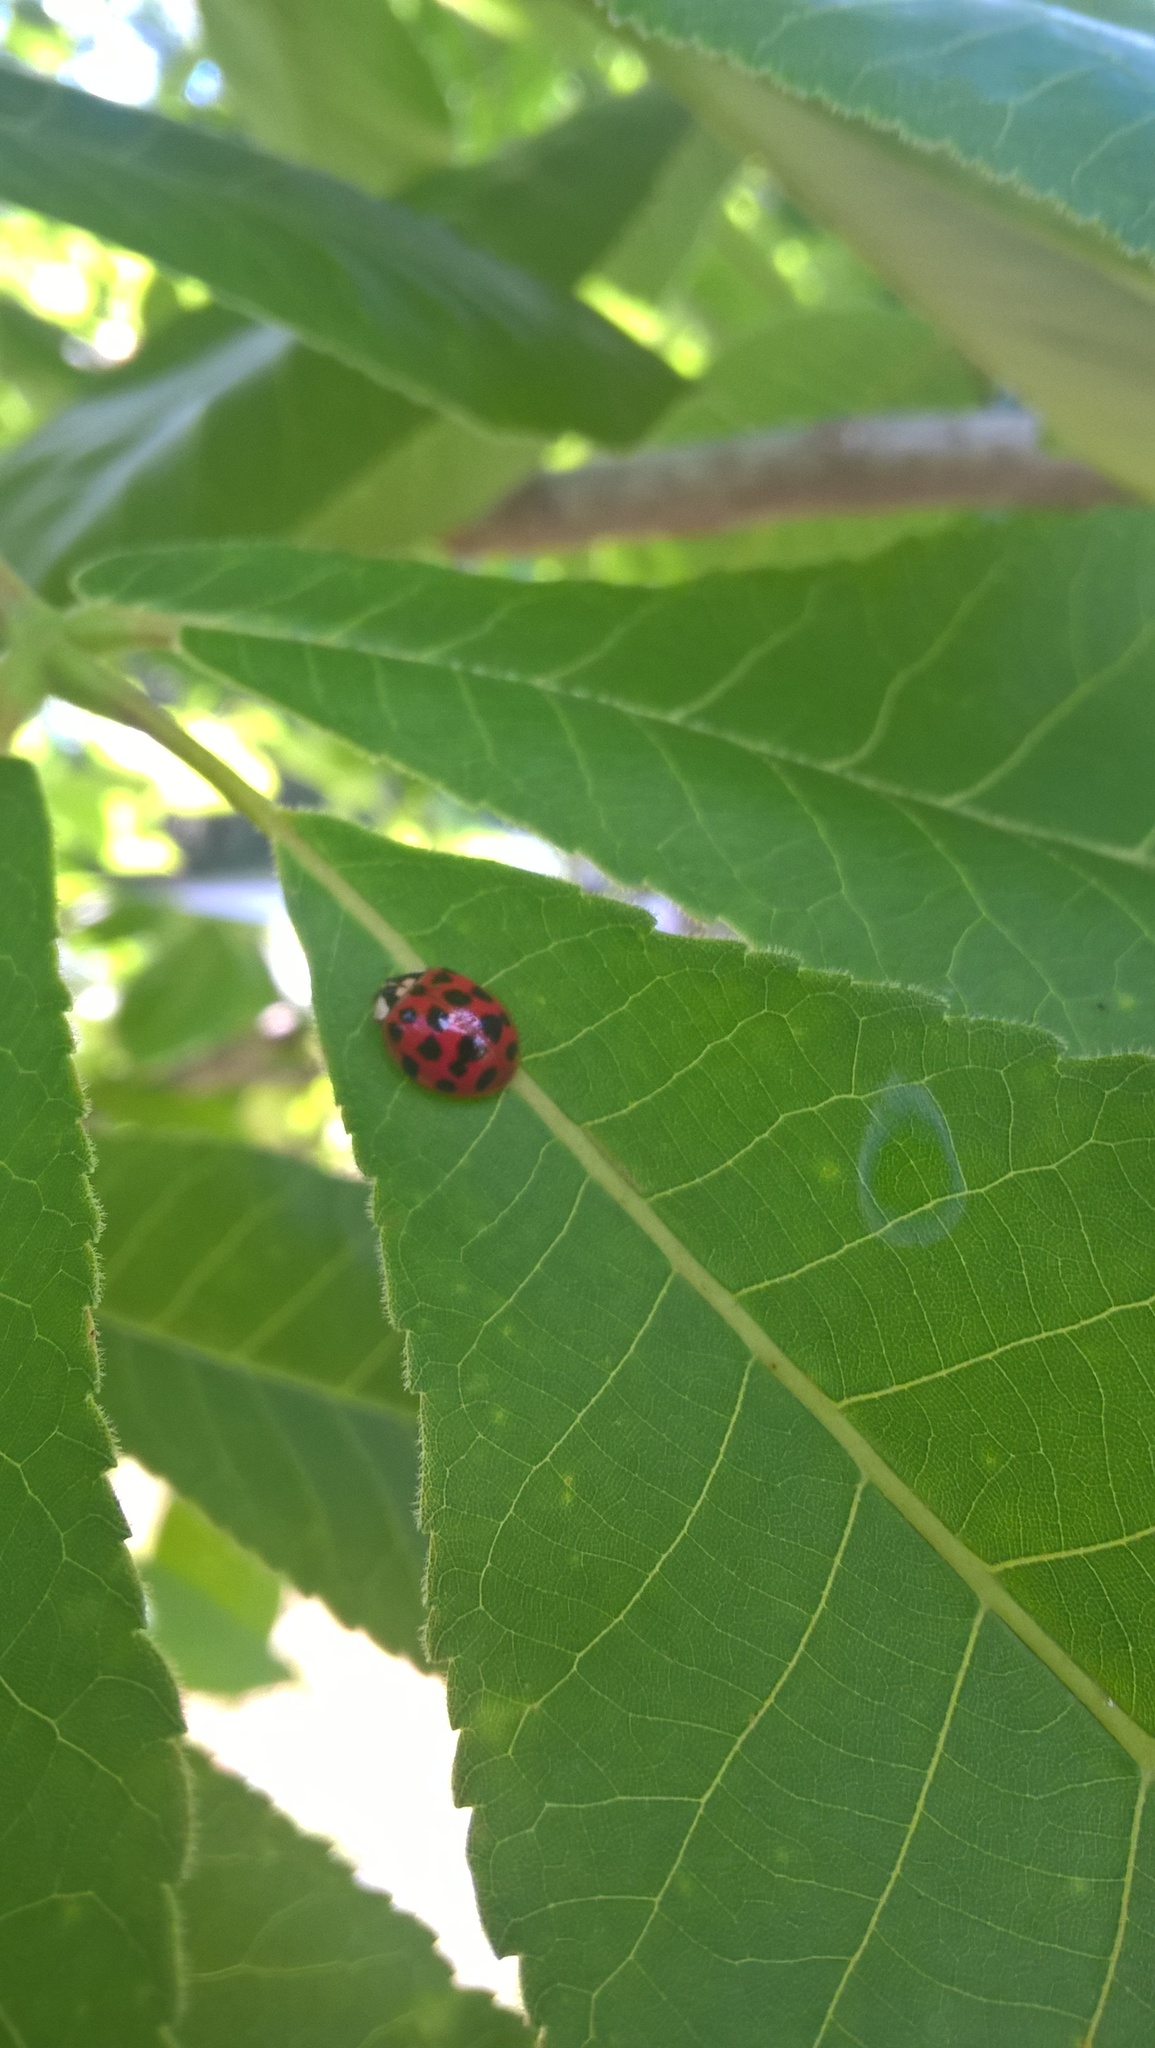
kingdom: Animalia
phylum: Arthropoda
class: Insecta
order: Coleoptera
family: Coccinellidae
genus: Harmonia
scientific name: Harmonia axyridis
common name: Harlequin ladybird
